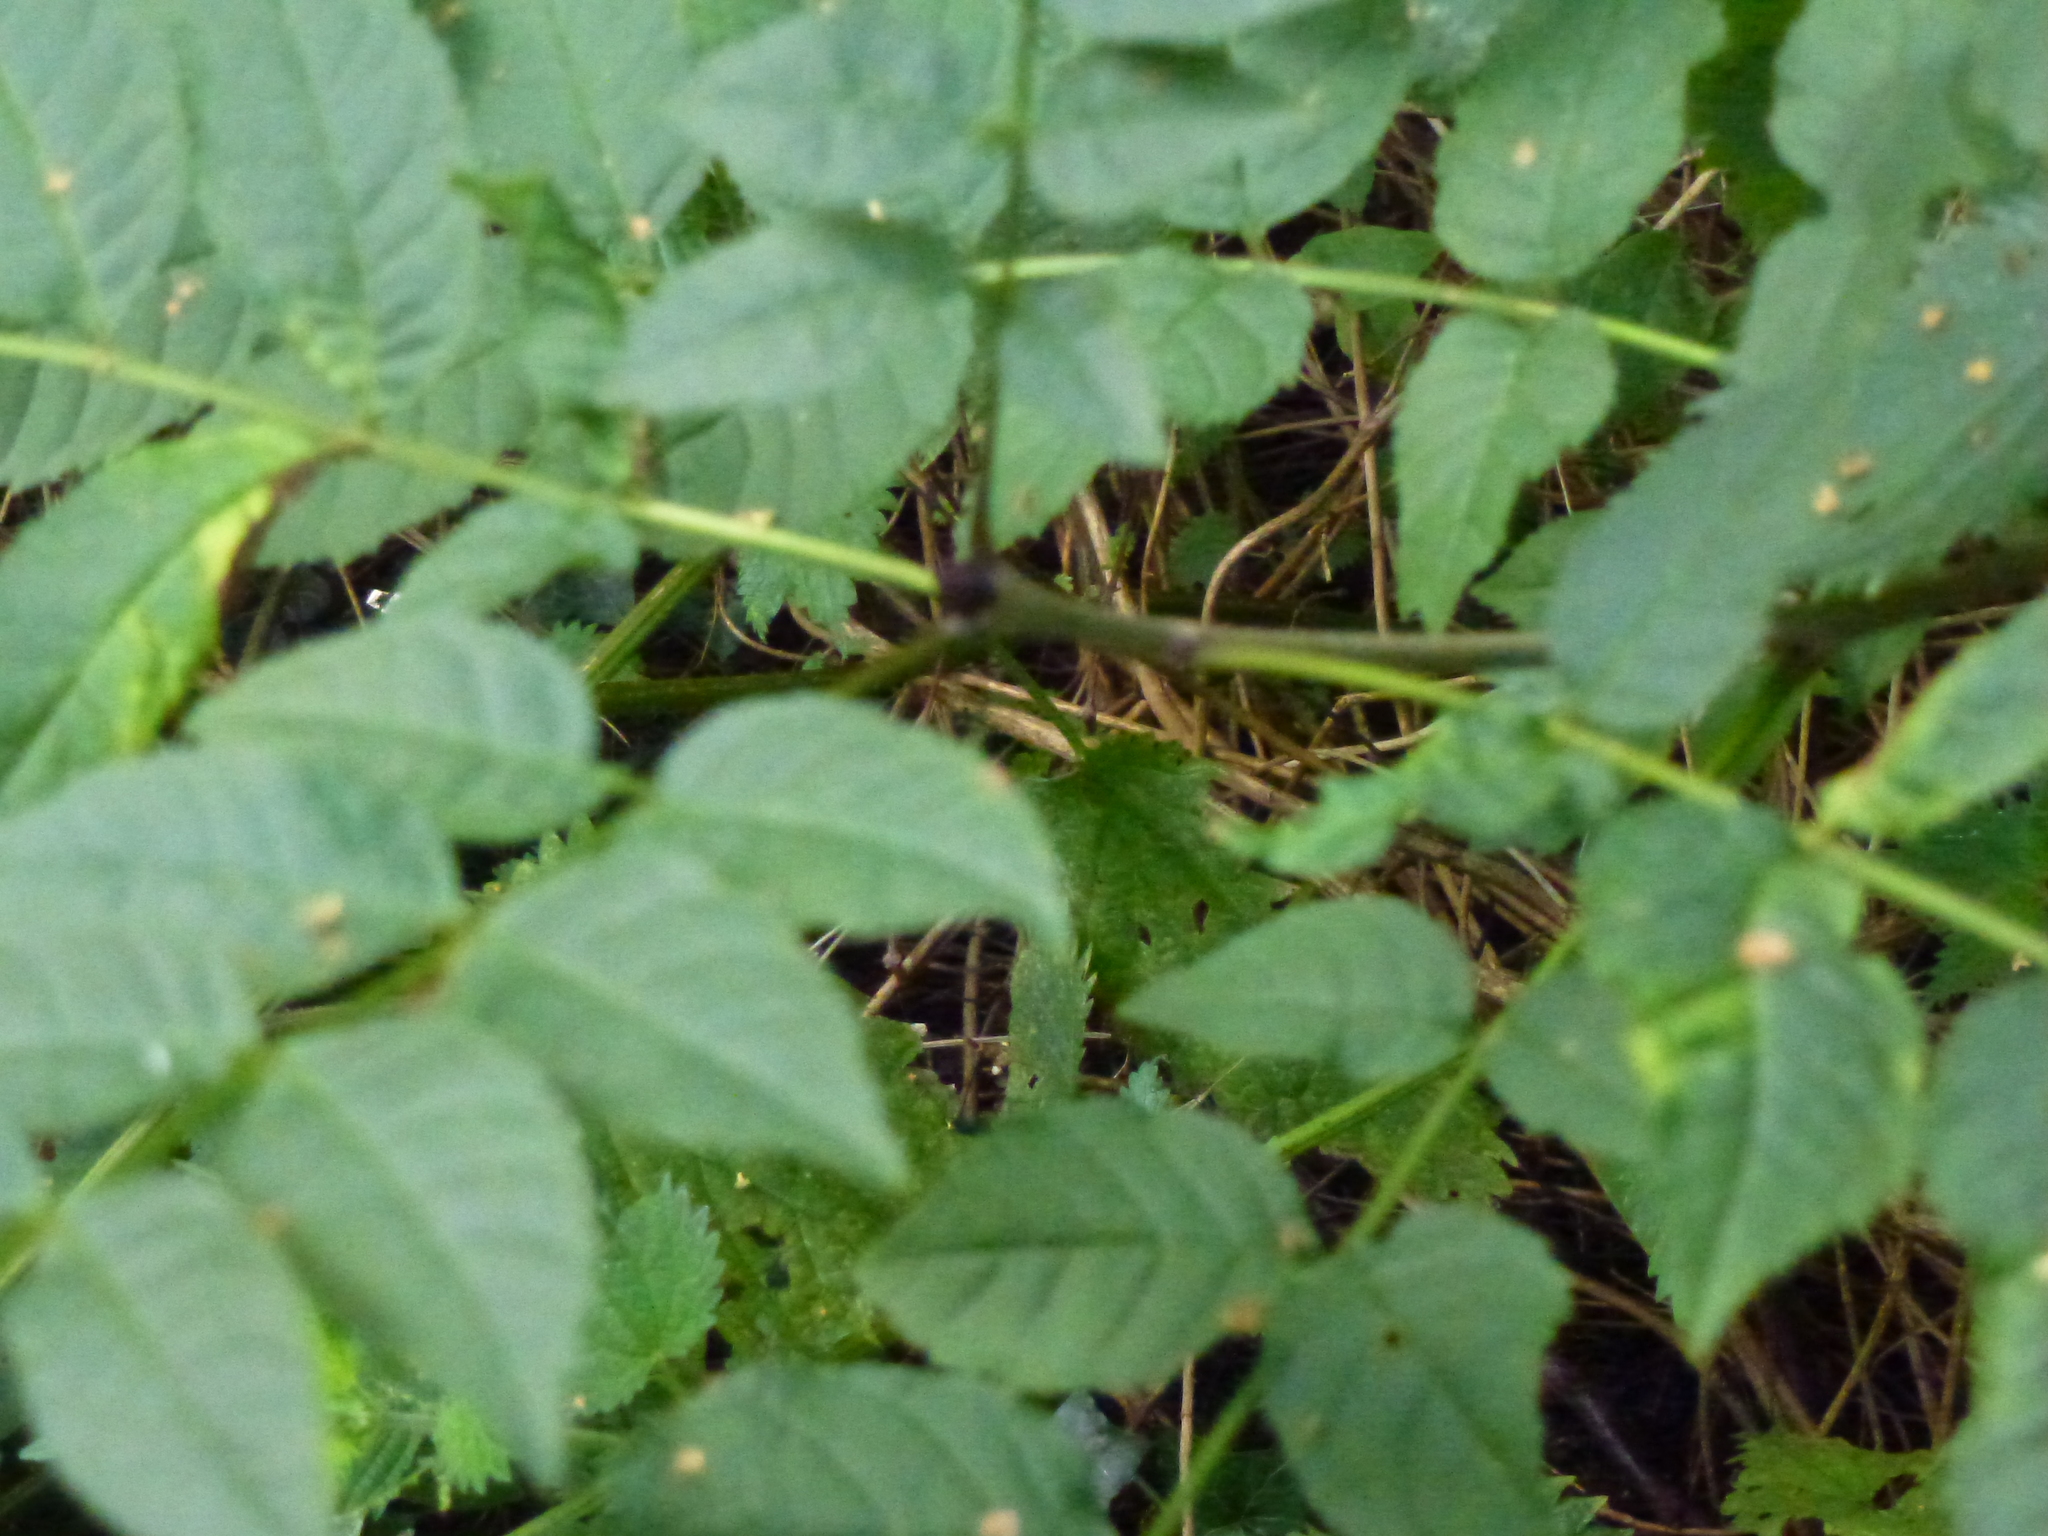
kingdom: Plantae
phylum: Tracheophyta
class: Magnoliopsida
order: Lamiales
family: Oleaceae
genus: Fraxinus
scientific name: Fraxinus excelsior
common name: European ash
